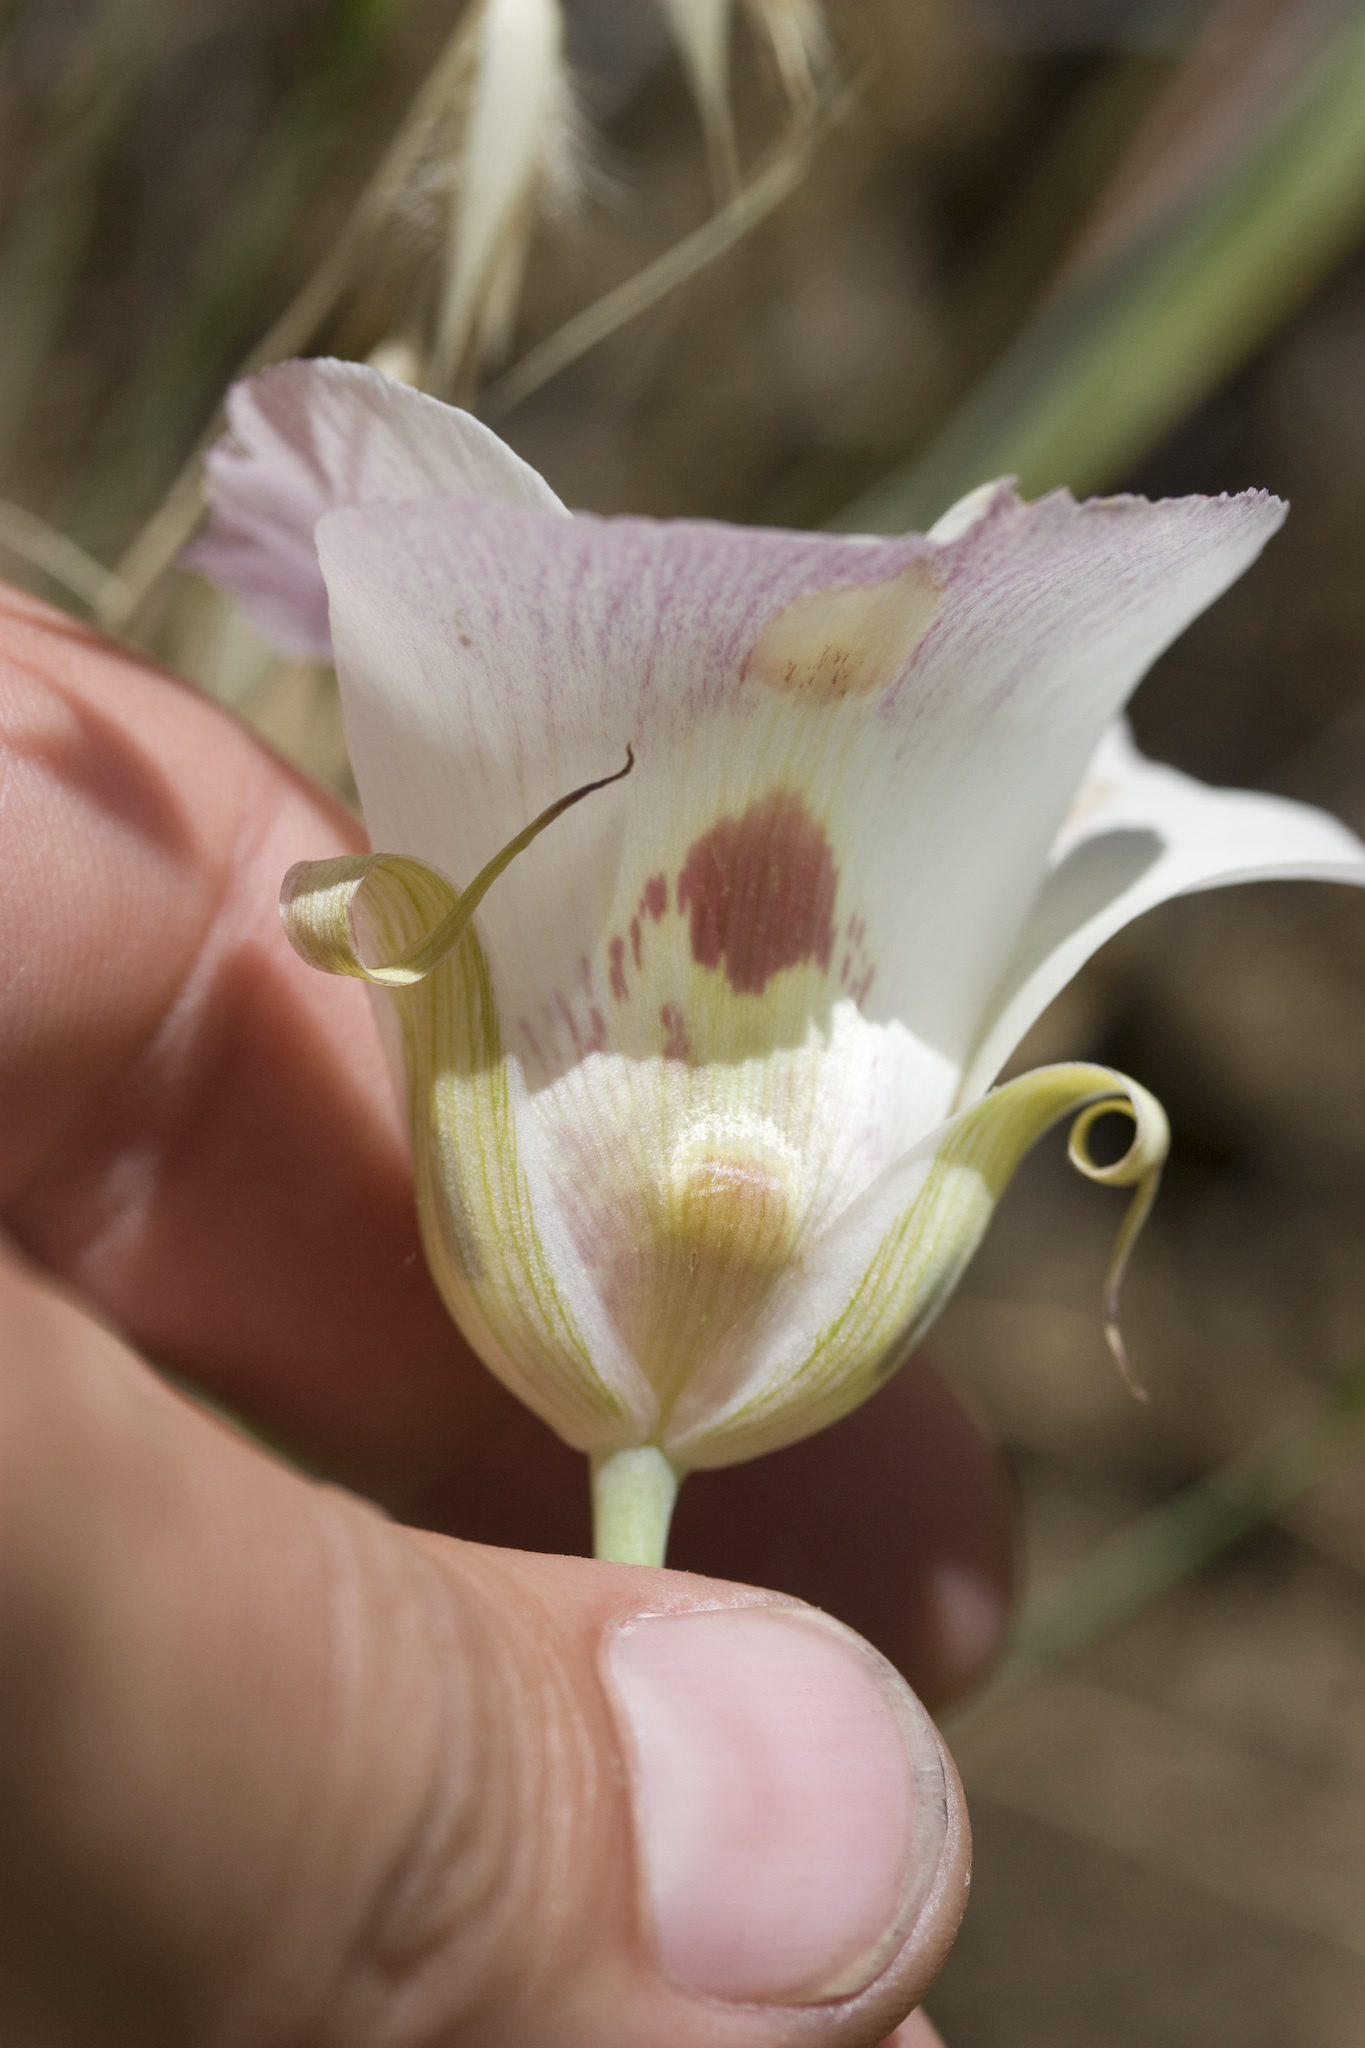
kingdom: Plantae
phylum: Tracheophyta
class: Liliopsida
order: Liliales
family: Liliaceae
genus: Calochortus
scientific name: Calochortus venustus
